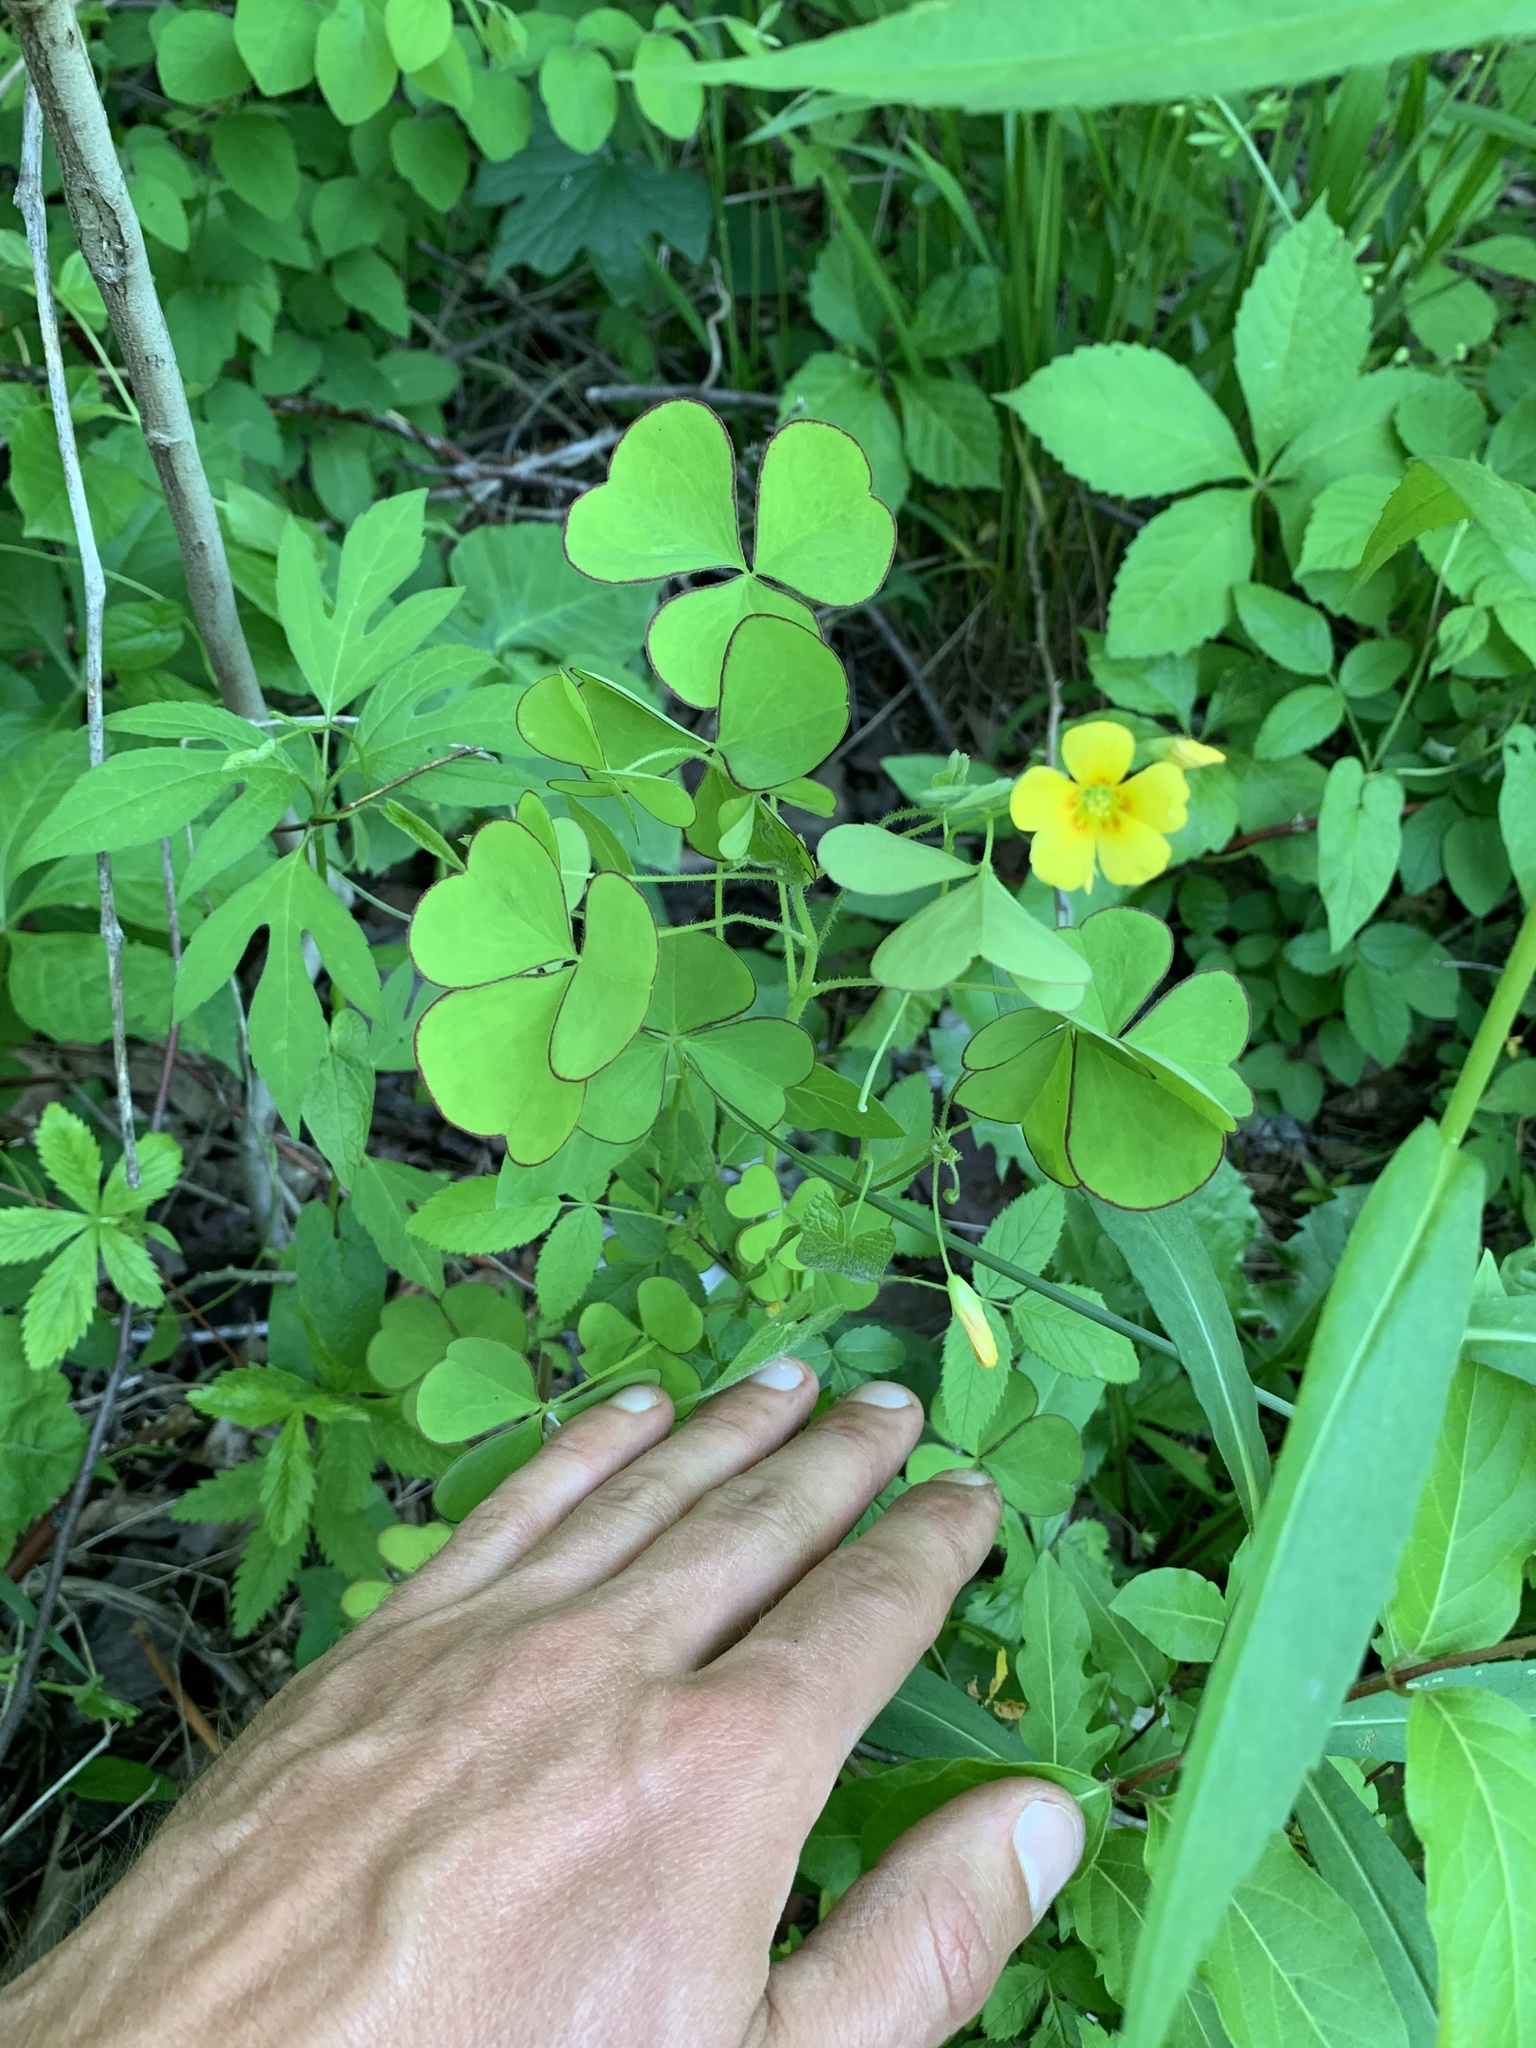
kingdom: Plantae
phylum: Tracheophyta
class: Magnoliopsida
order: Oxalidales
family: Oxalidaceae
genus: Oxalis
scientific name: Oxalis grandis
